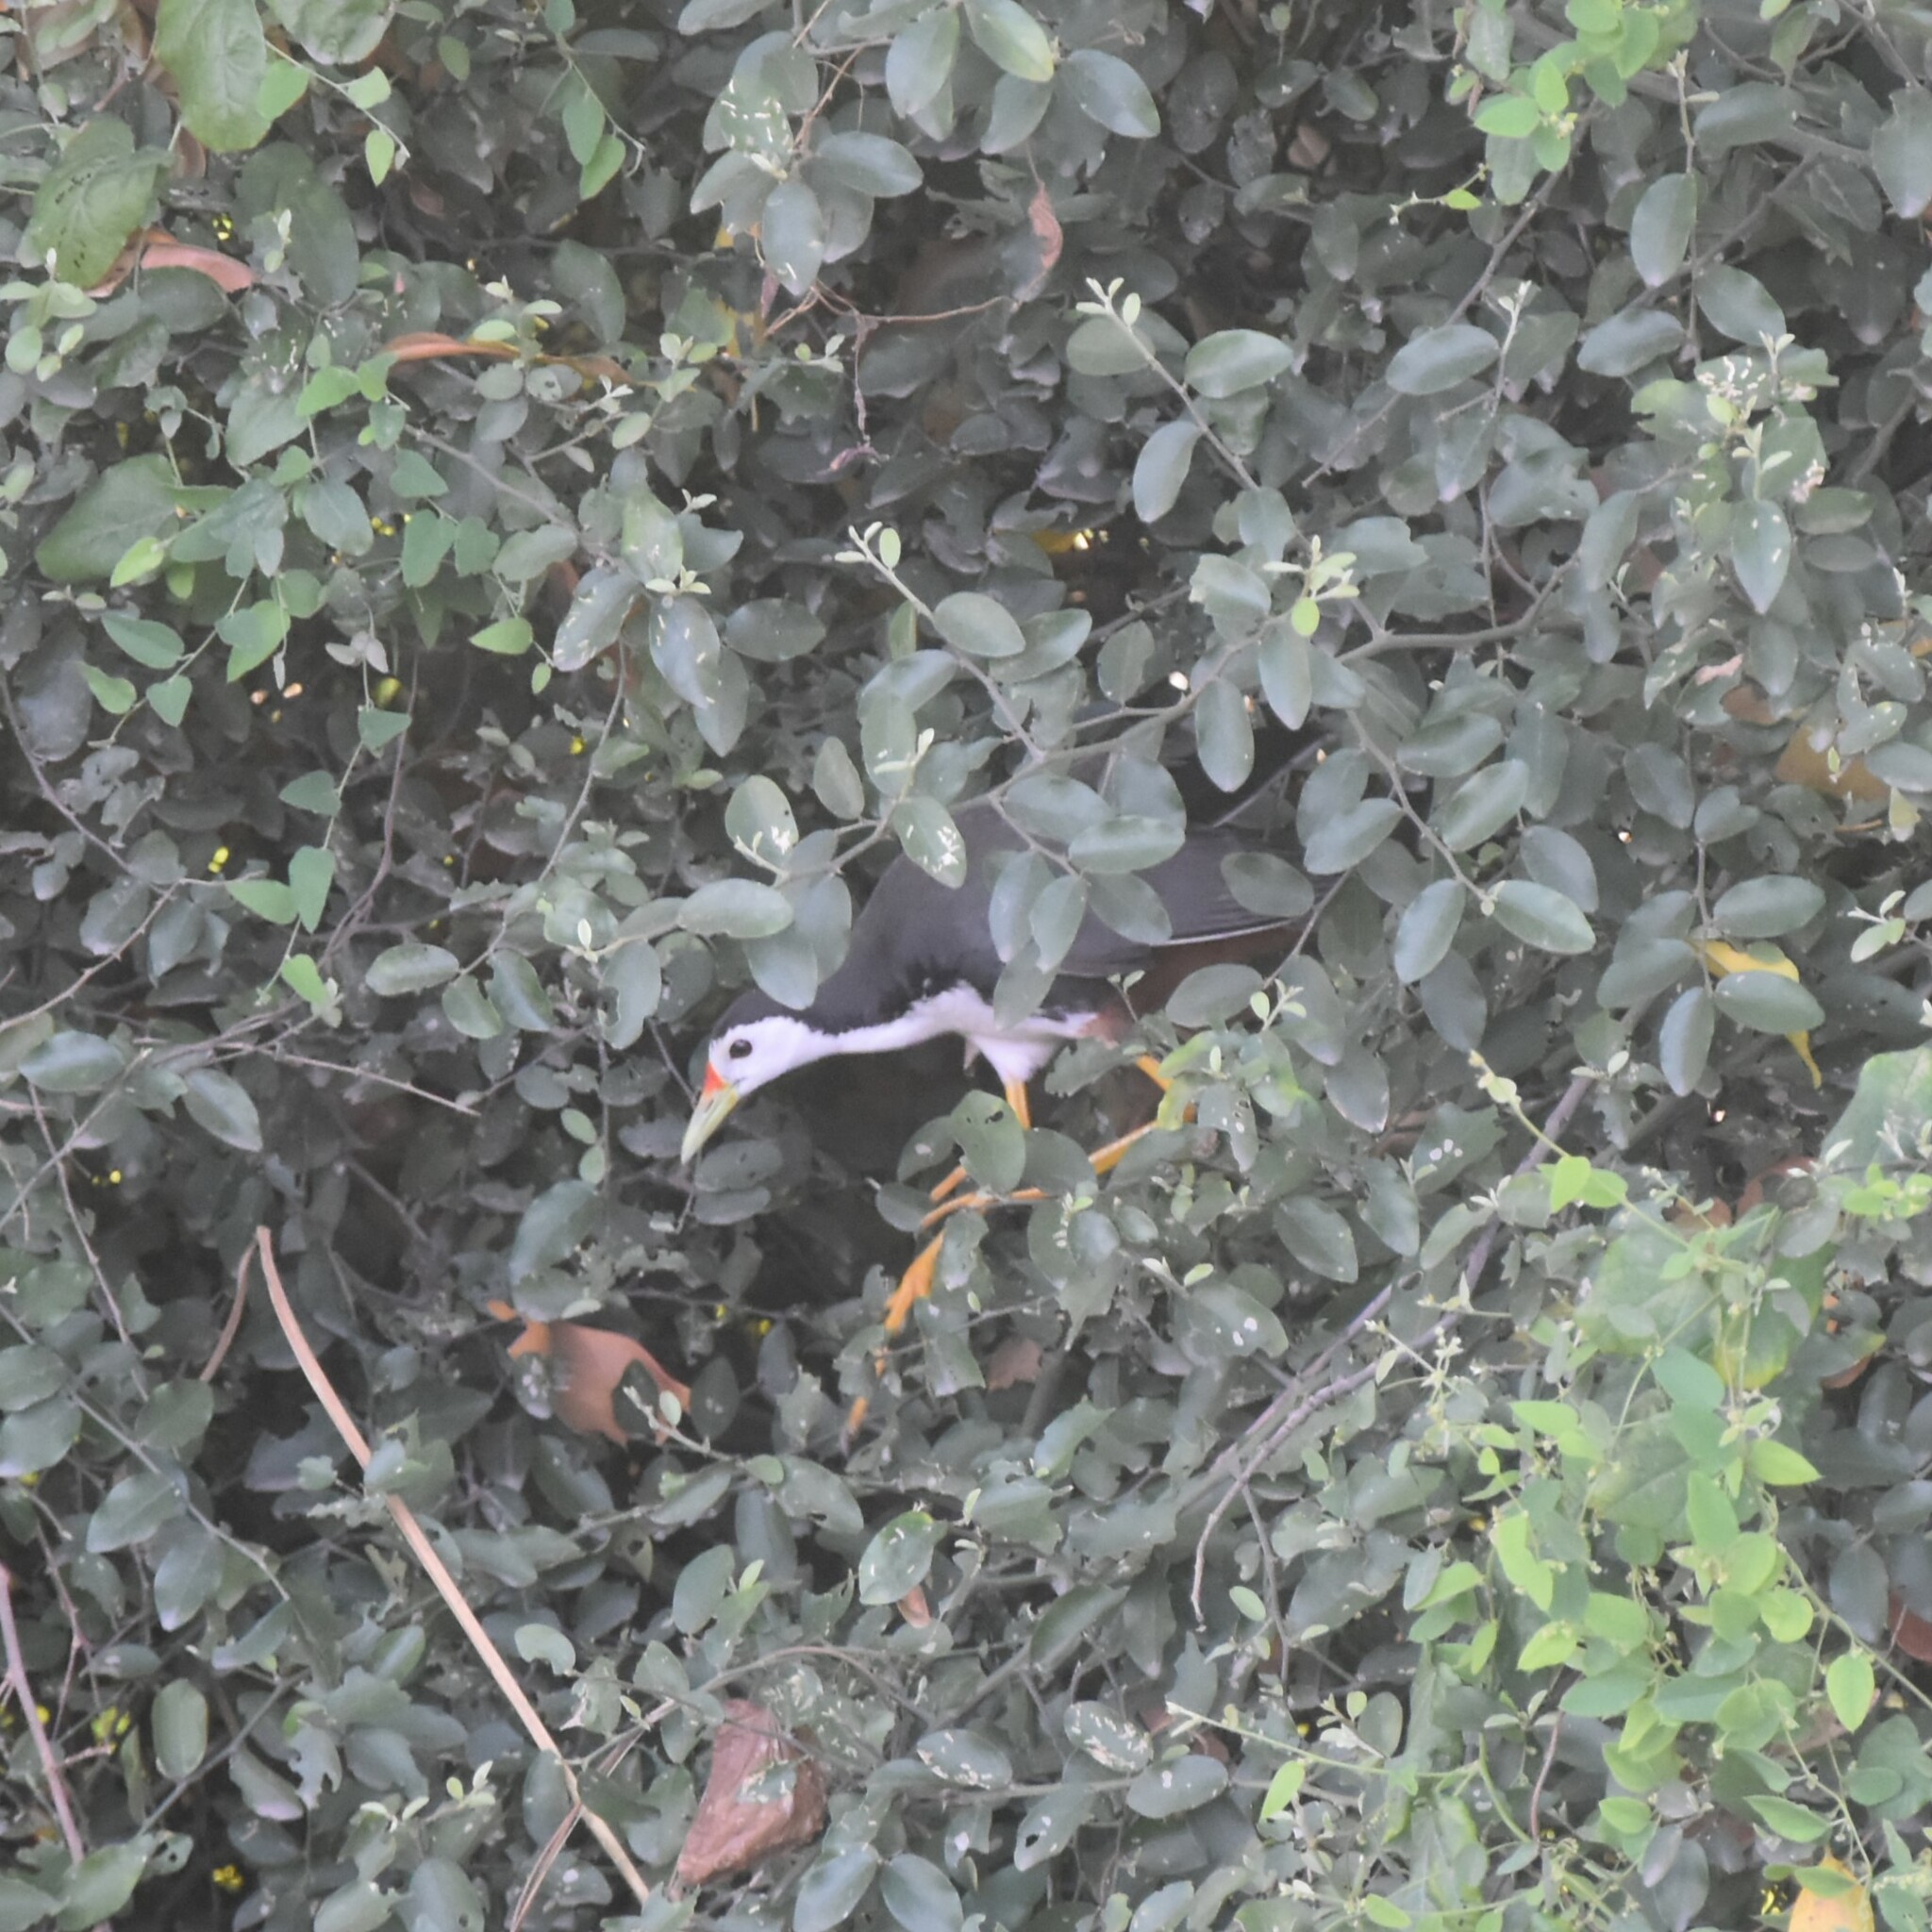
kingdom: Animalia
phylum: Chordata
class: Aves
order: Gruiformes
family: Rallidae
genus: Amaurornis
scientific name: Amaurornis phoenicurus
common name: White-breasted waterhen
